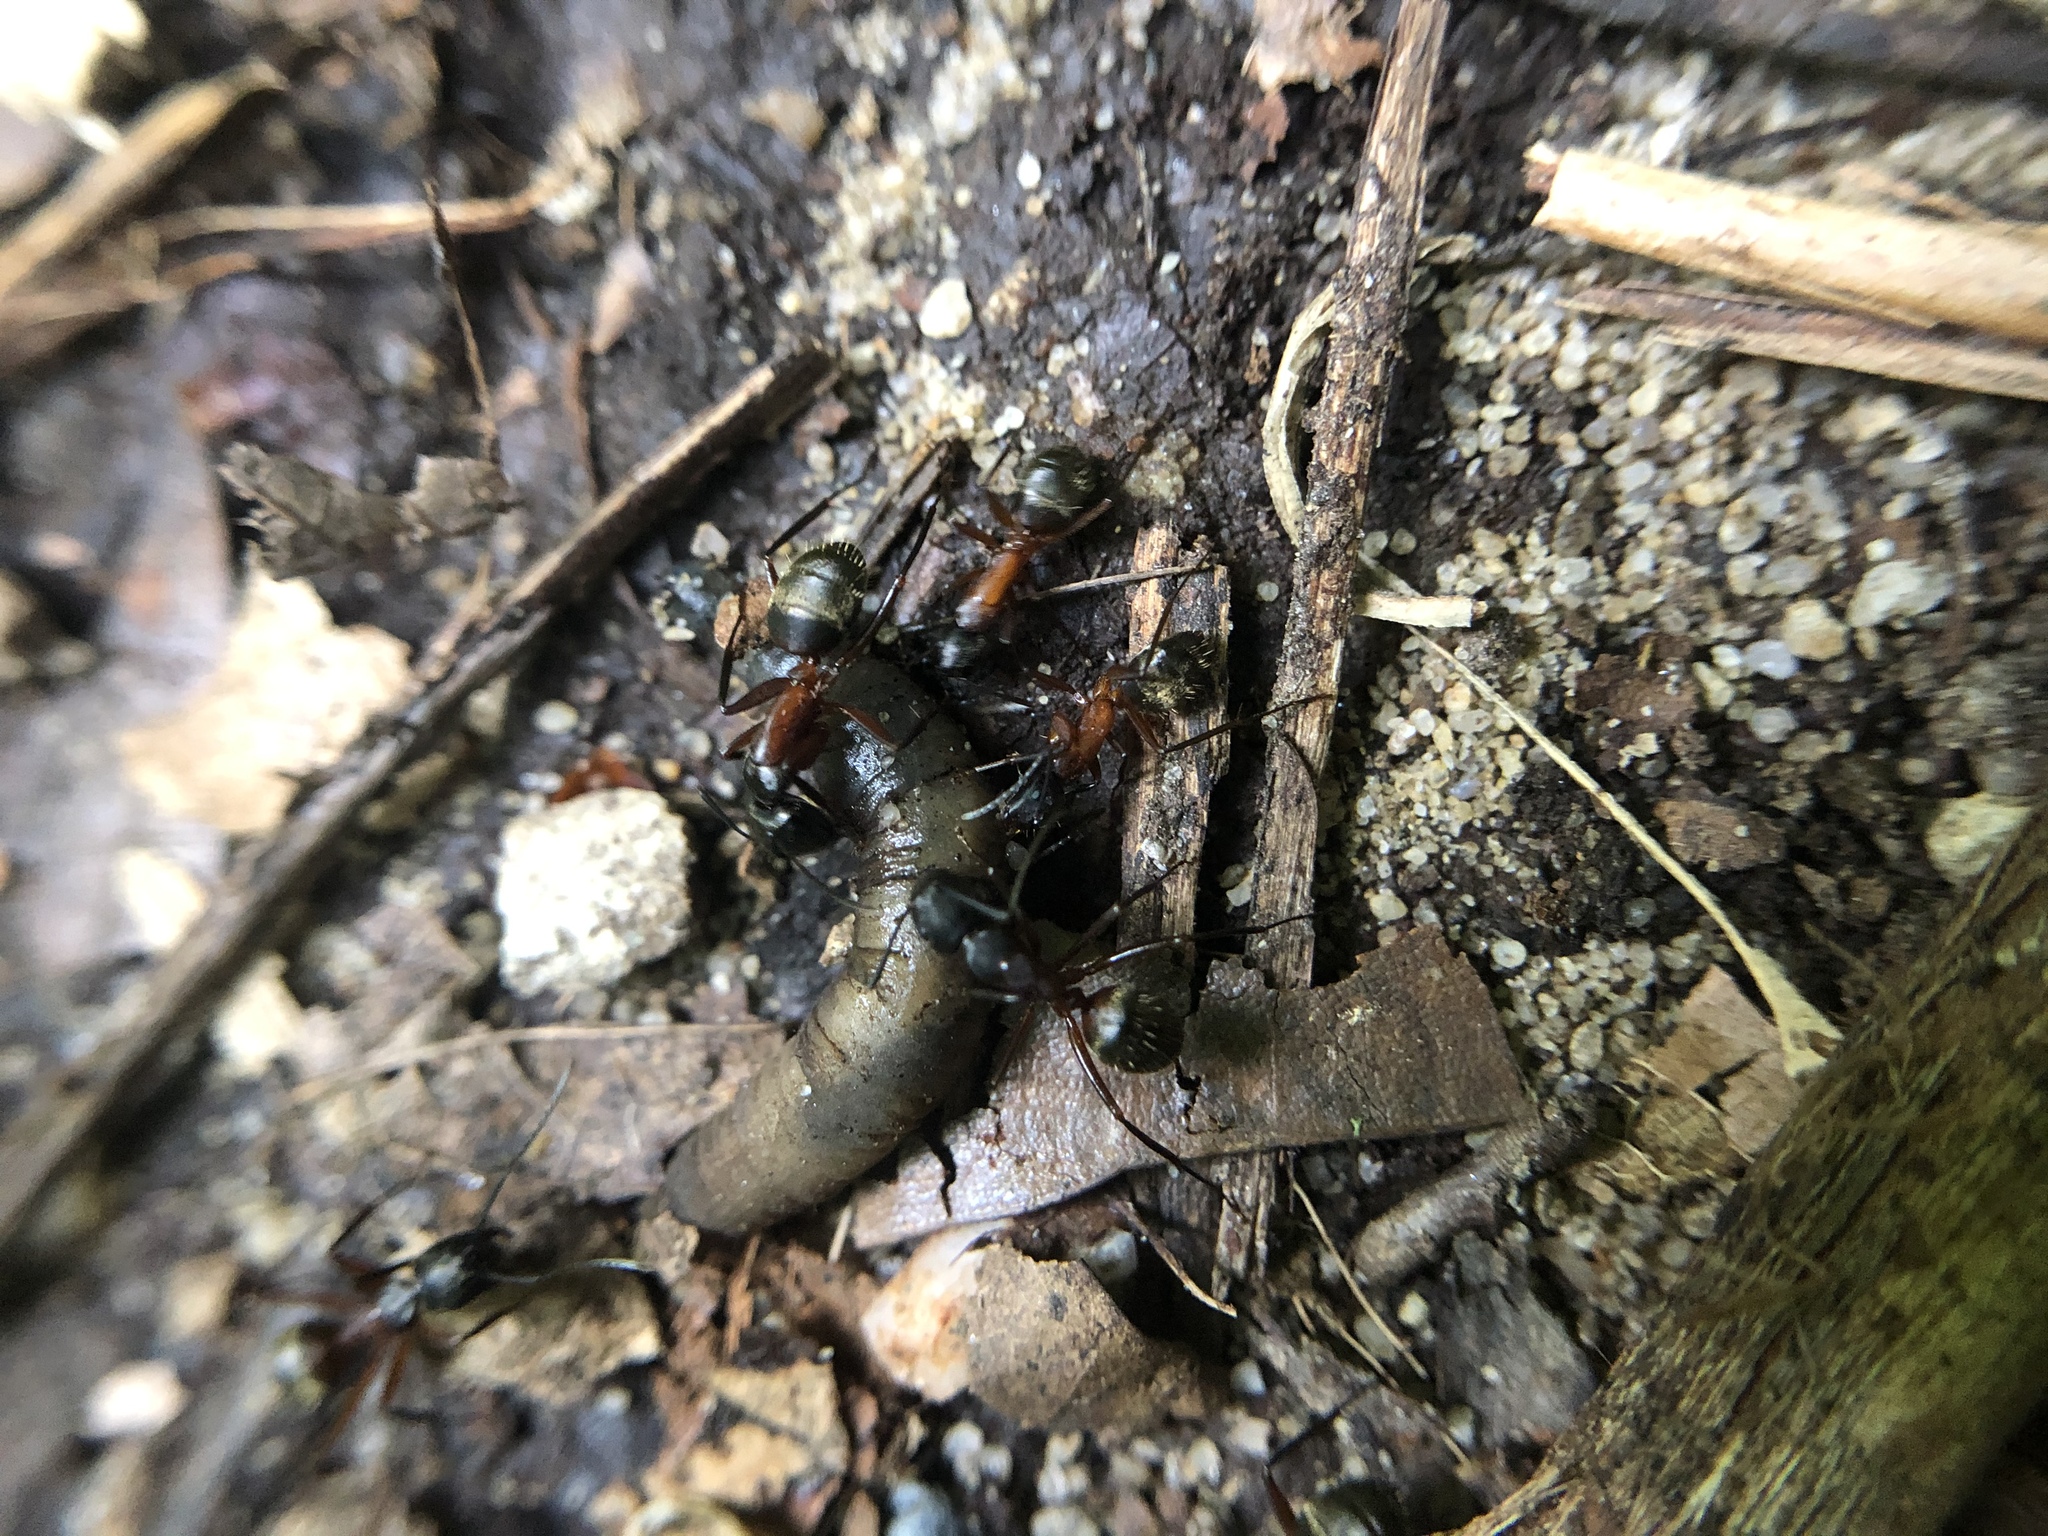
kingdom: Animalia
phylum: Arthropoda
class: Insecta
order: Hymenoptera
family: Formicidae
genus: Camponotus
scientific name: Camponotus chromaiodes
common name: Red carpenter ant
